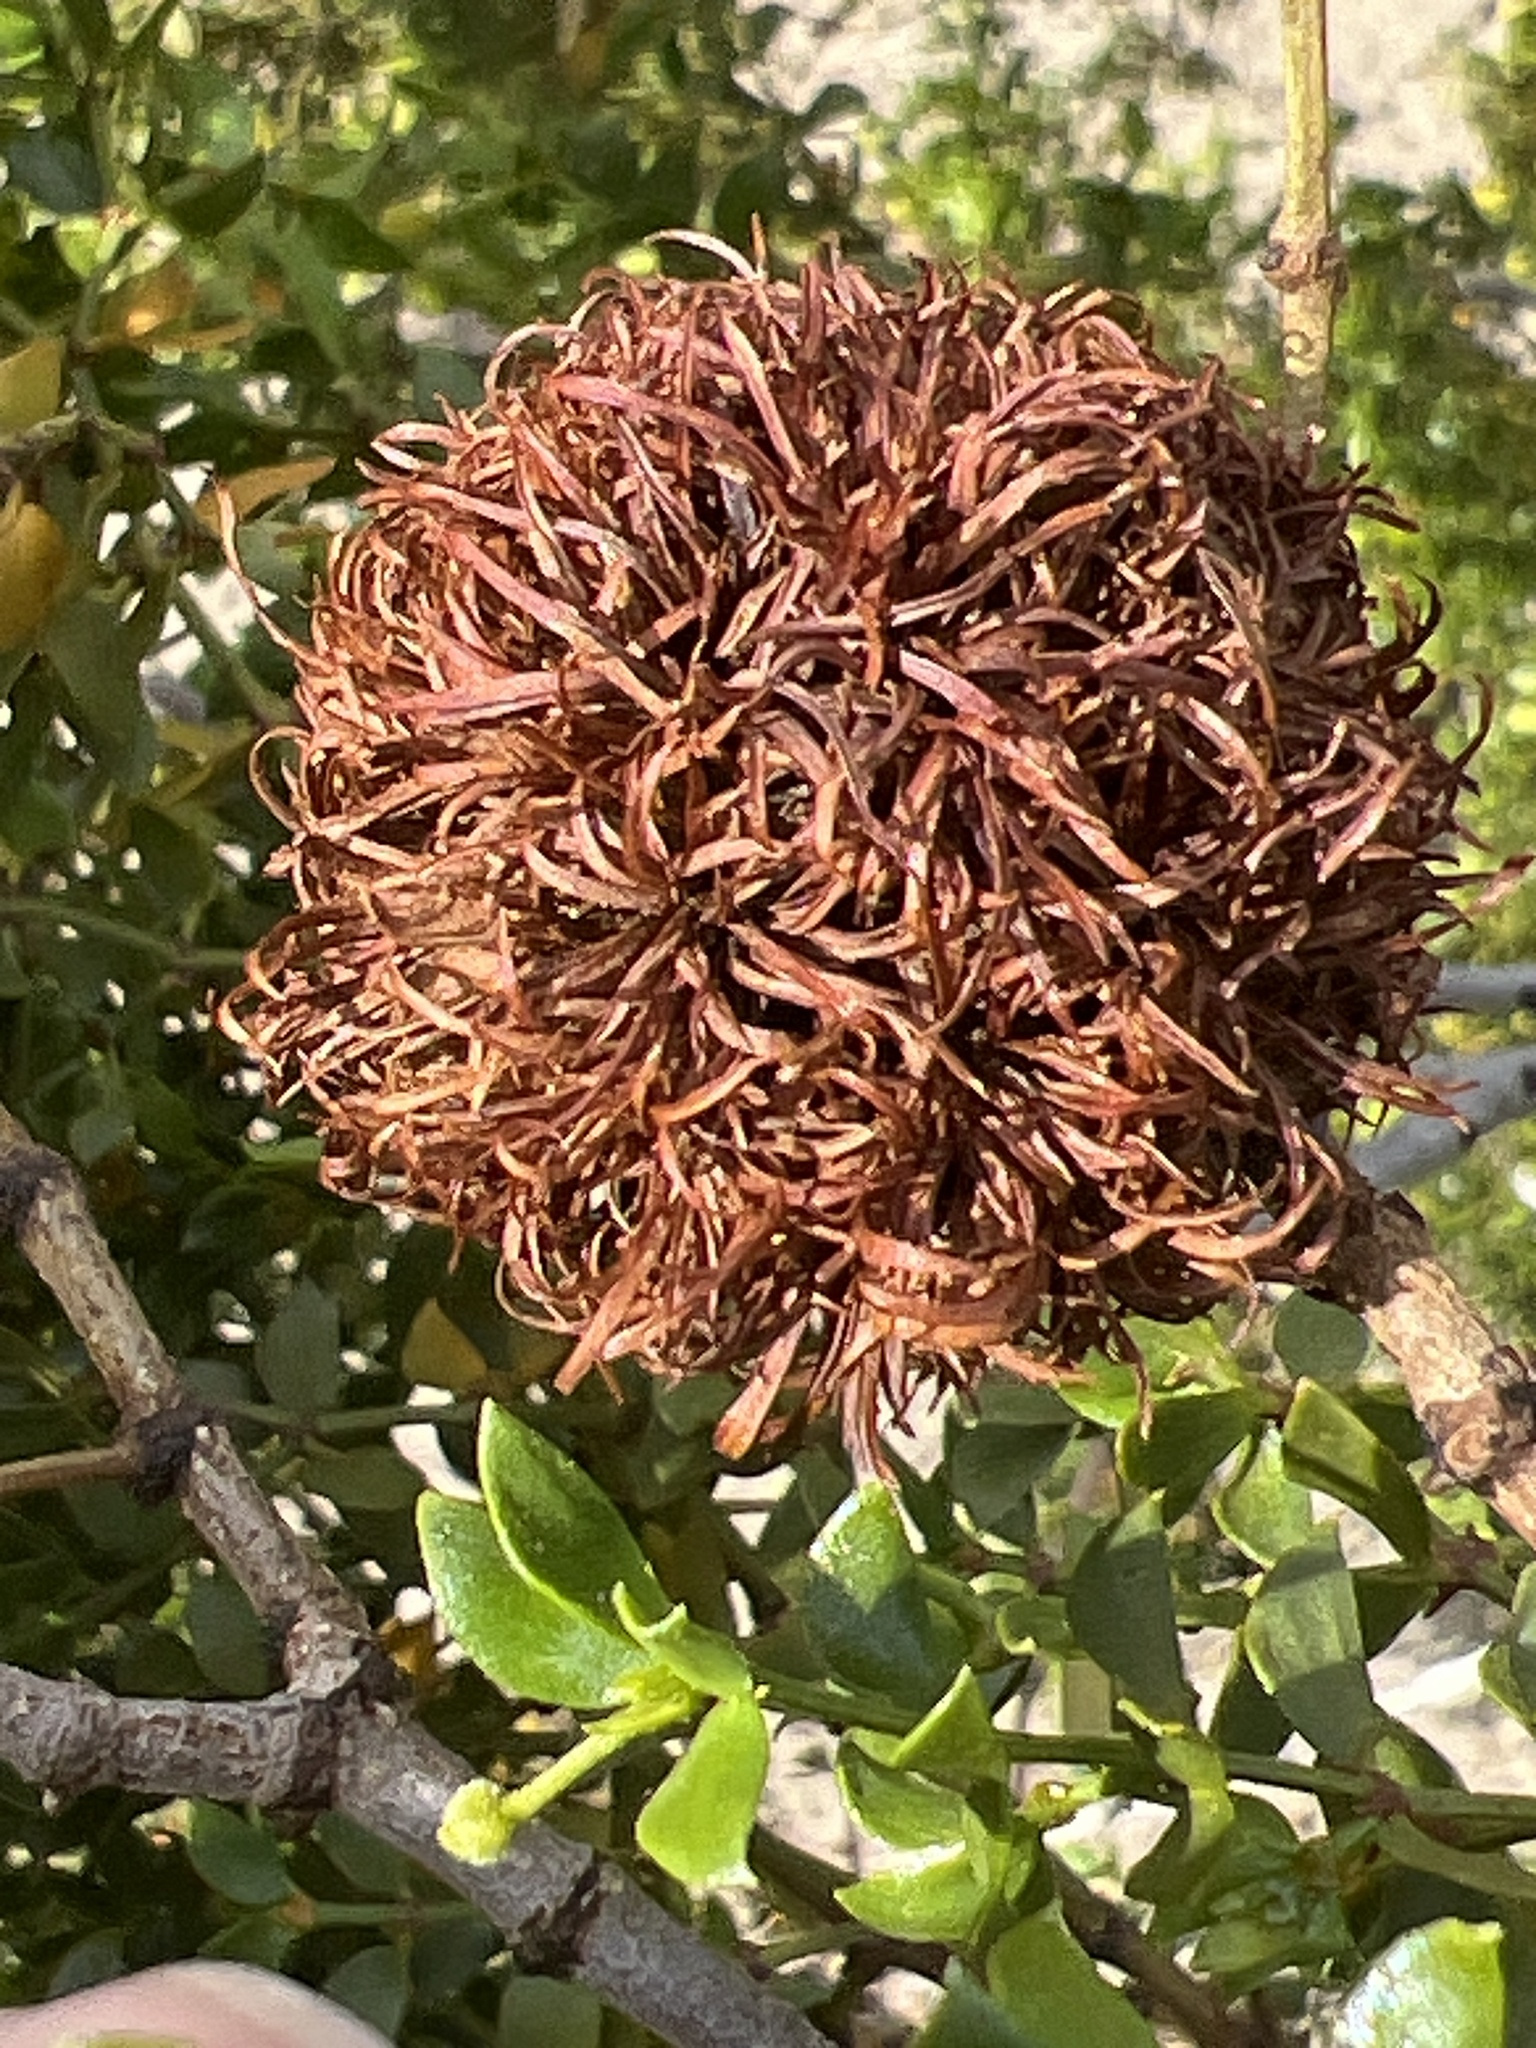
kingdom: Animalia
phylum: Arthropoda
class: Insecta
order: Diptera
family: Cecidomyiidae
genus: Asphondylia
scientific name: Asphondylia auripila
